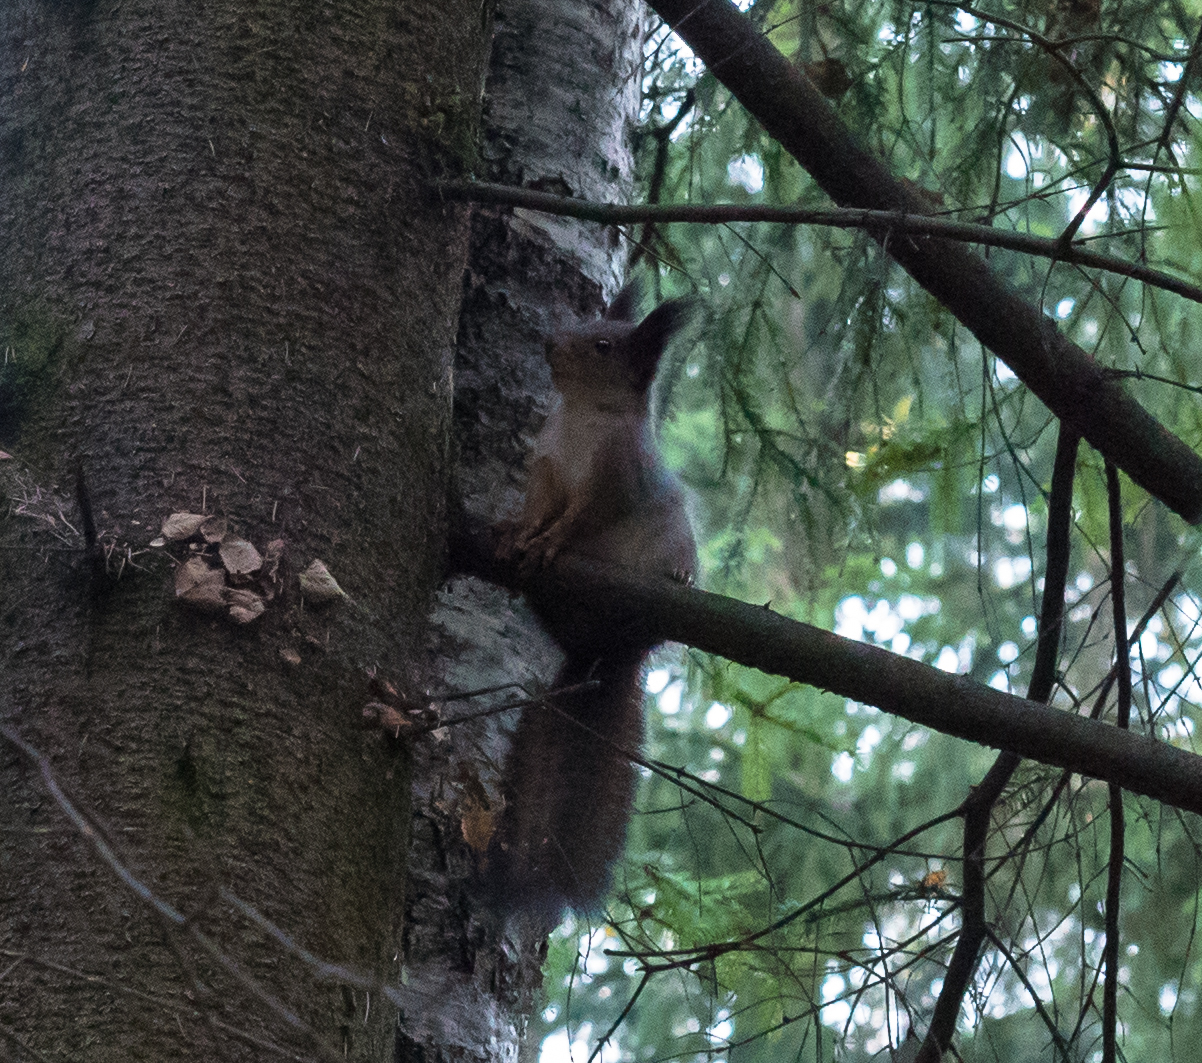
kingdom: Animalia
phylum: Chordata
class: Mammalia
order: Rodentia
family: Sciuridae
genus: Sciurus
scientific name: Sciurus vulgaris
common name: Eurasian red squirrel
